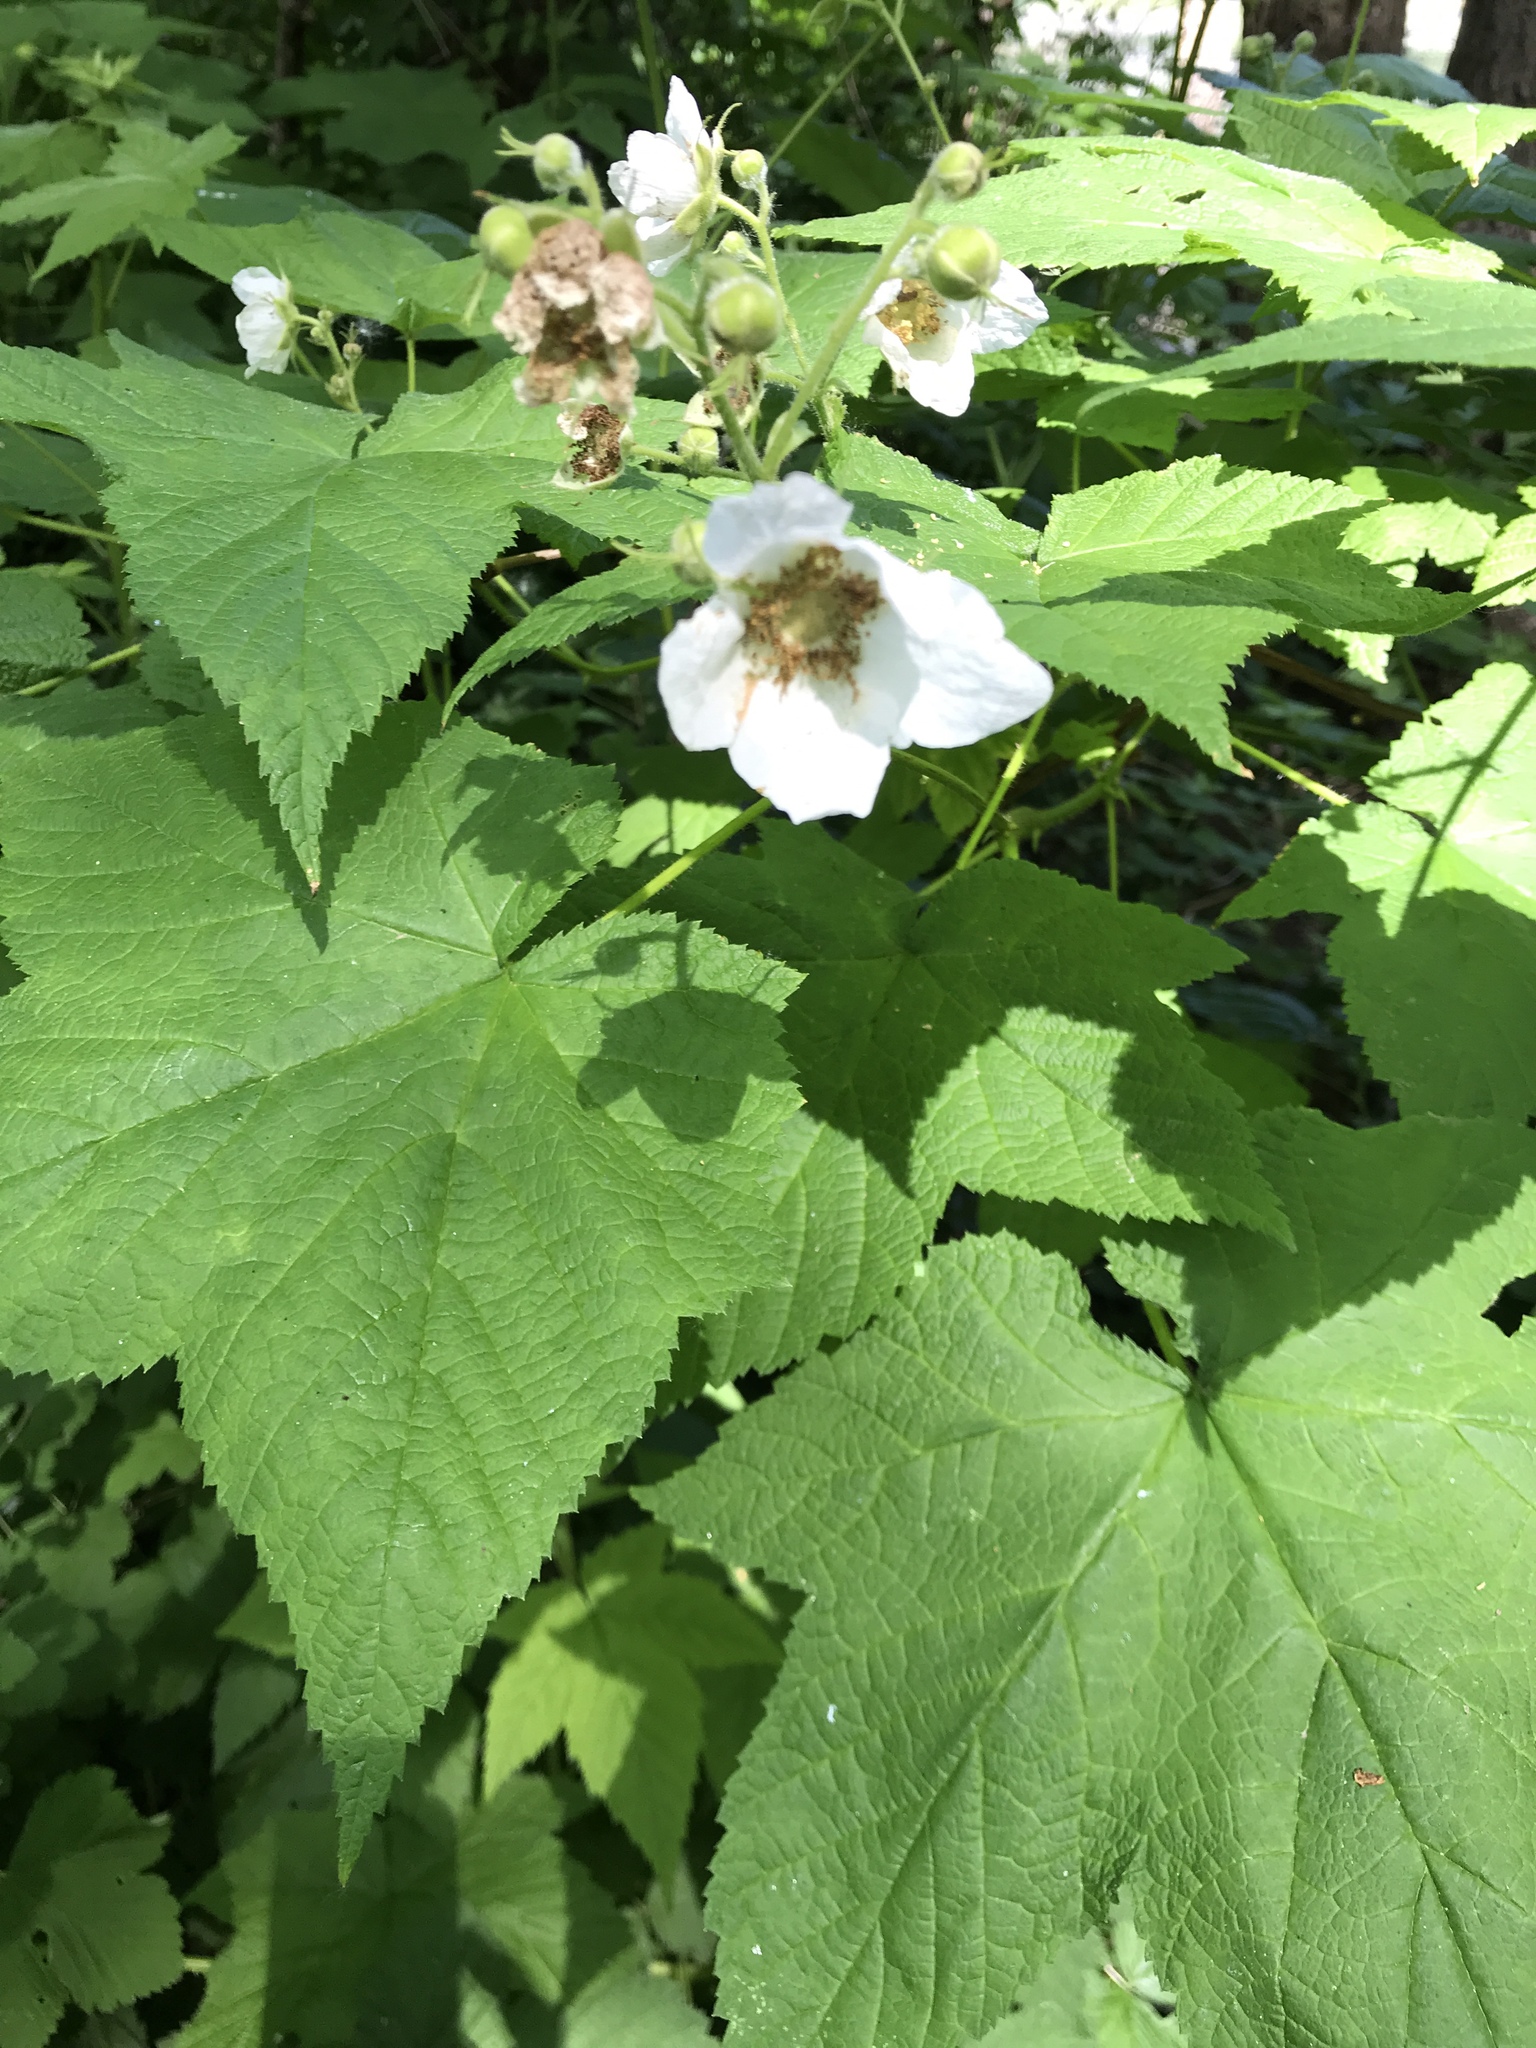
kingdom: Plantae
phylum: Tracheophyta
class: Magnoliopsida
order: Rosales
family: Rosaceae
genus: Rubus
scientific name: Rubus parviflorus
